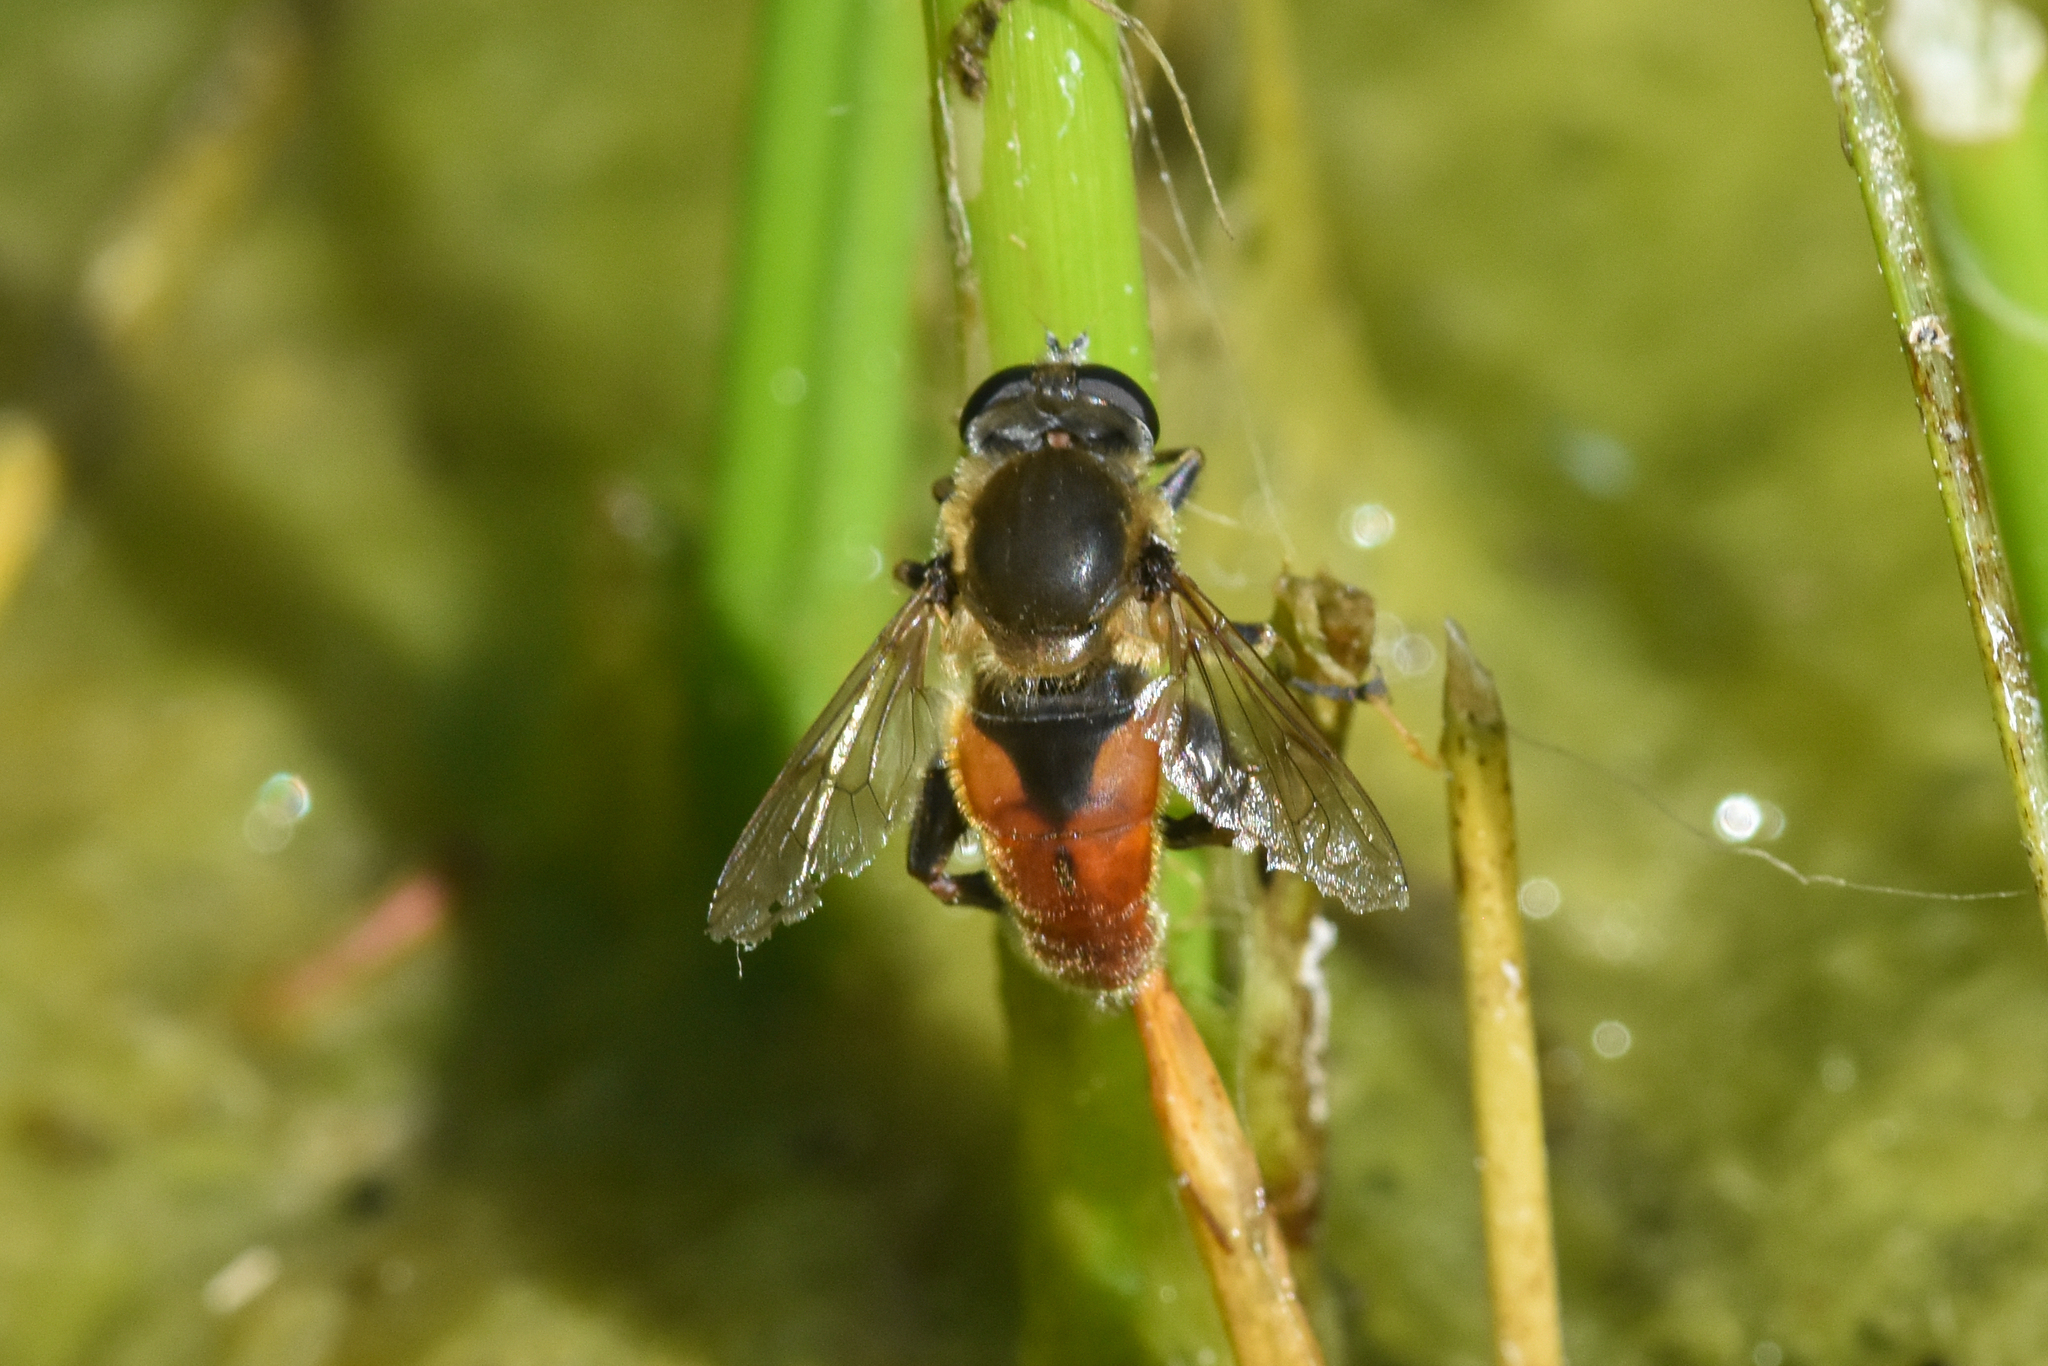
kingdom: Animalia
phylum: Arthropoda
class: Insecta
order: Diptera
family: Syrphidae
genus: Polydontomyia
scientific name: Polydontomyia curvipes
